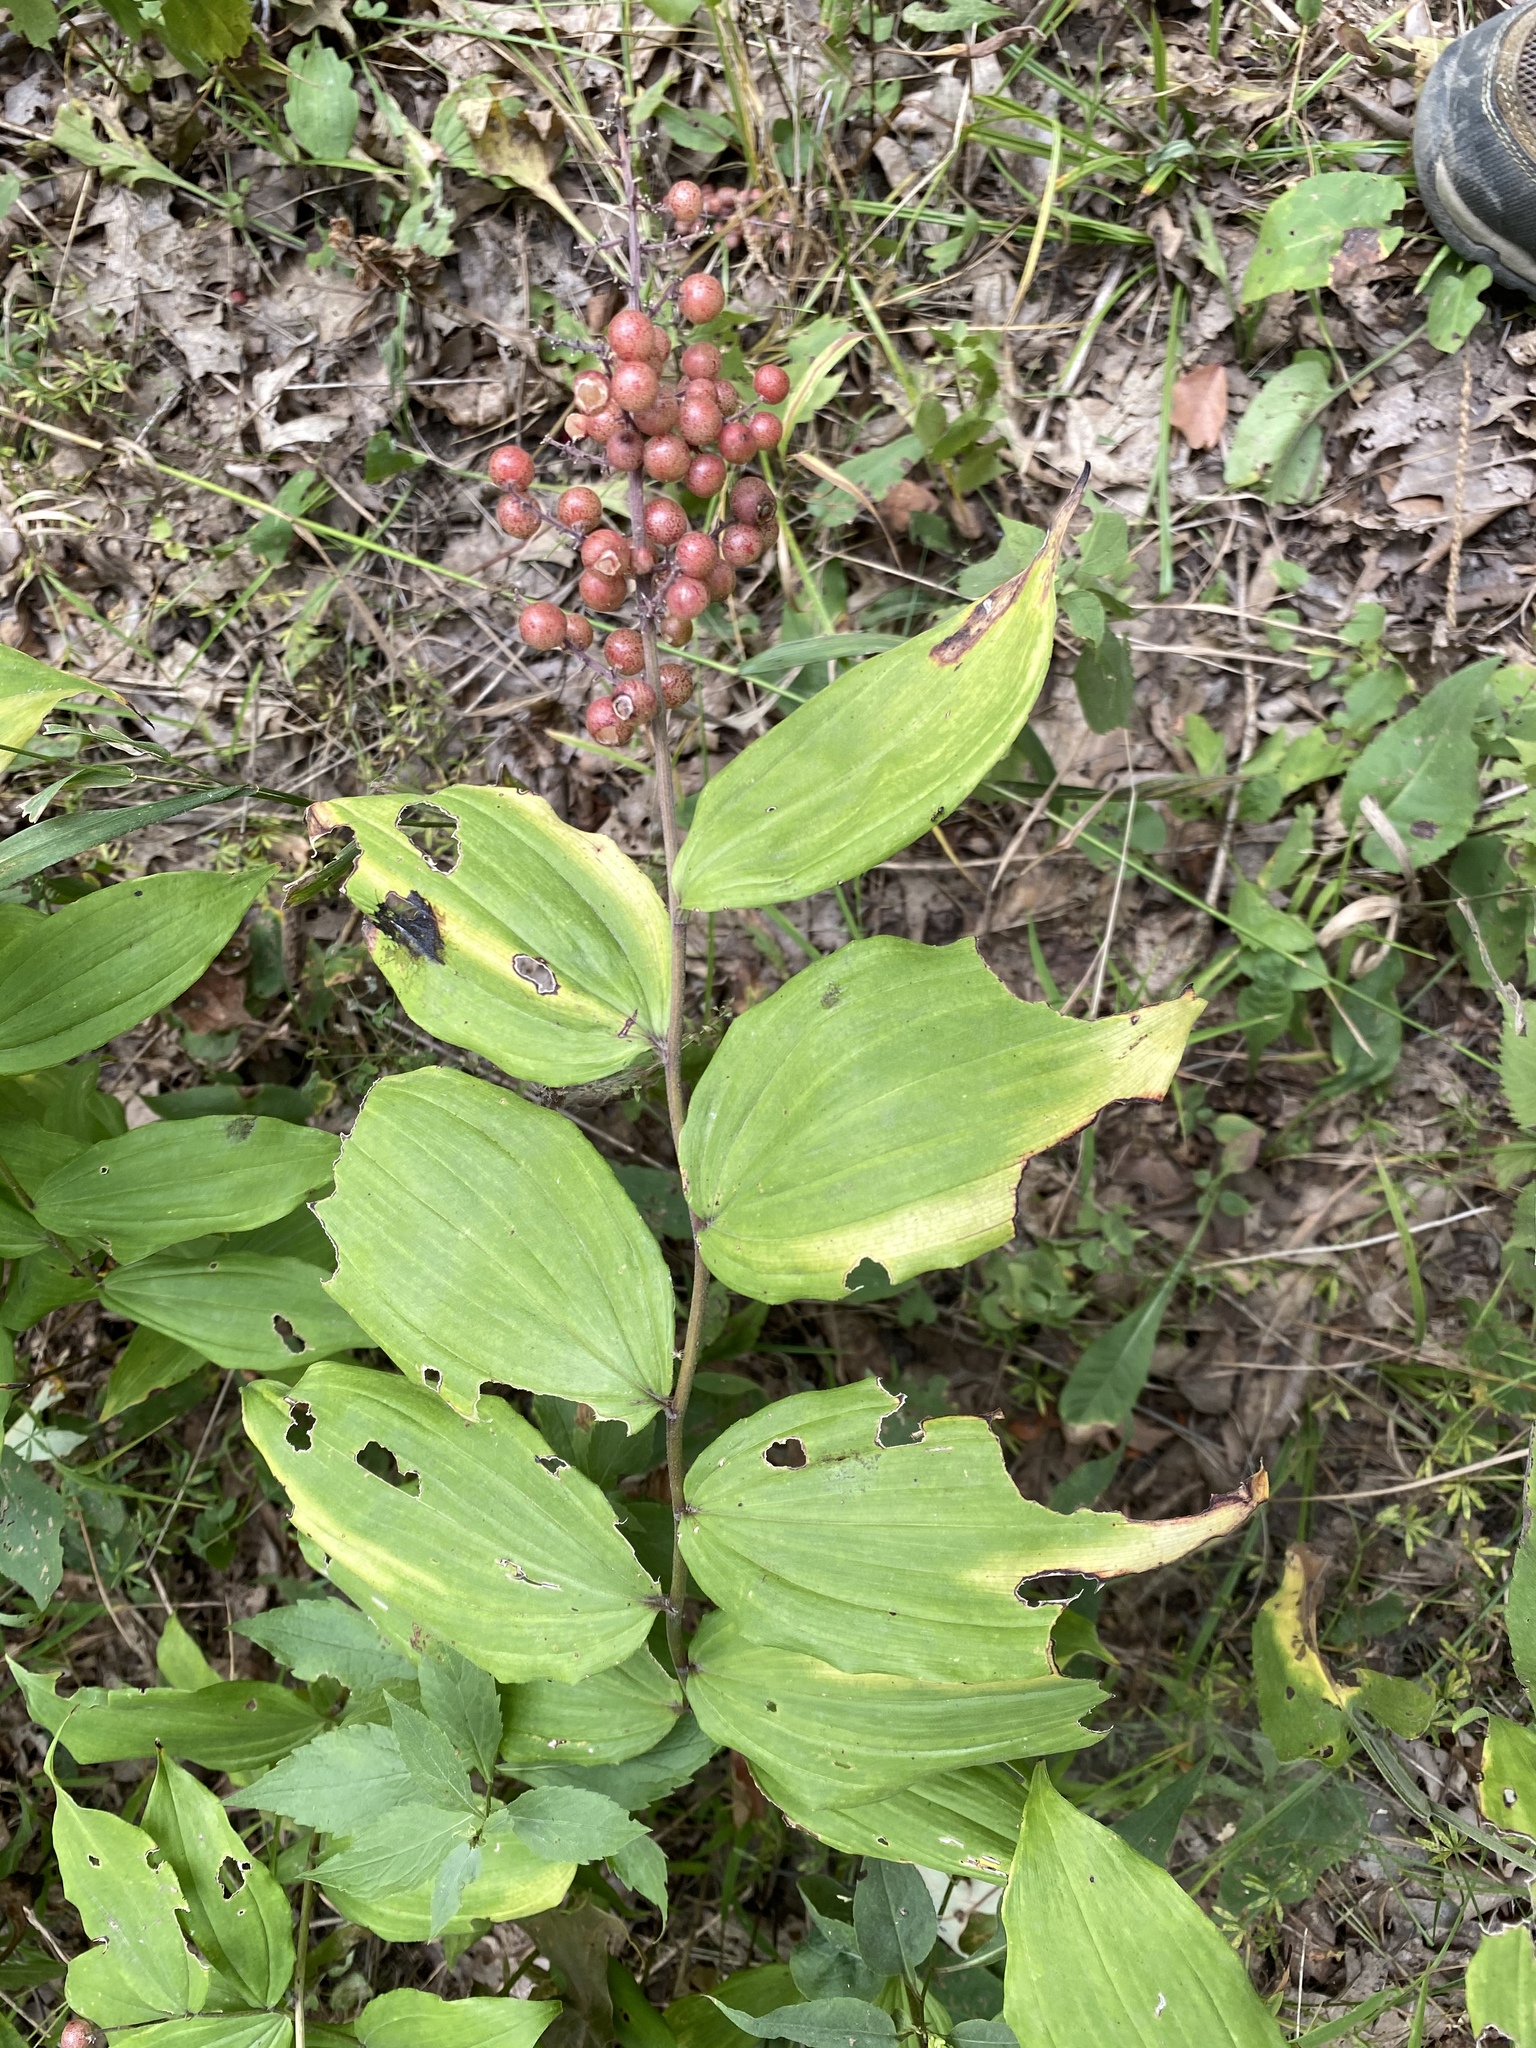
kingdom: Plantae
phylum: Tracheophyta
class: Liliopsida
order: Asparagales
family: Asparagaceae
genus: Maianthemum
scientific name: Maianthemum racemosum
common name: False spikenard
